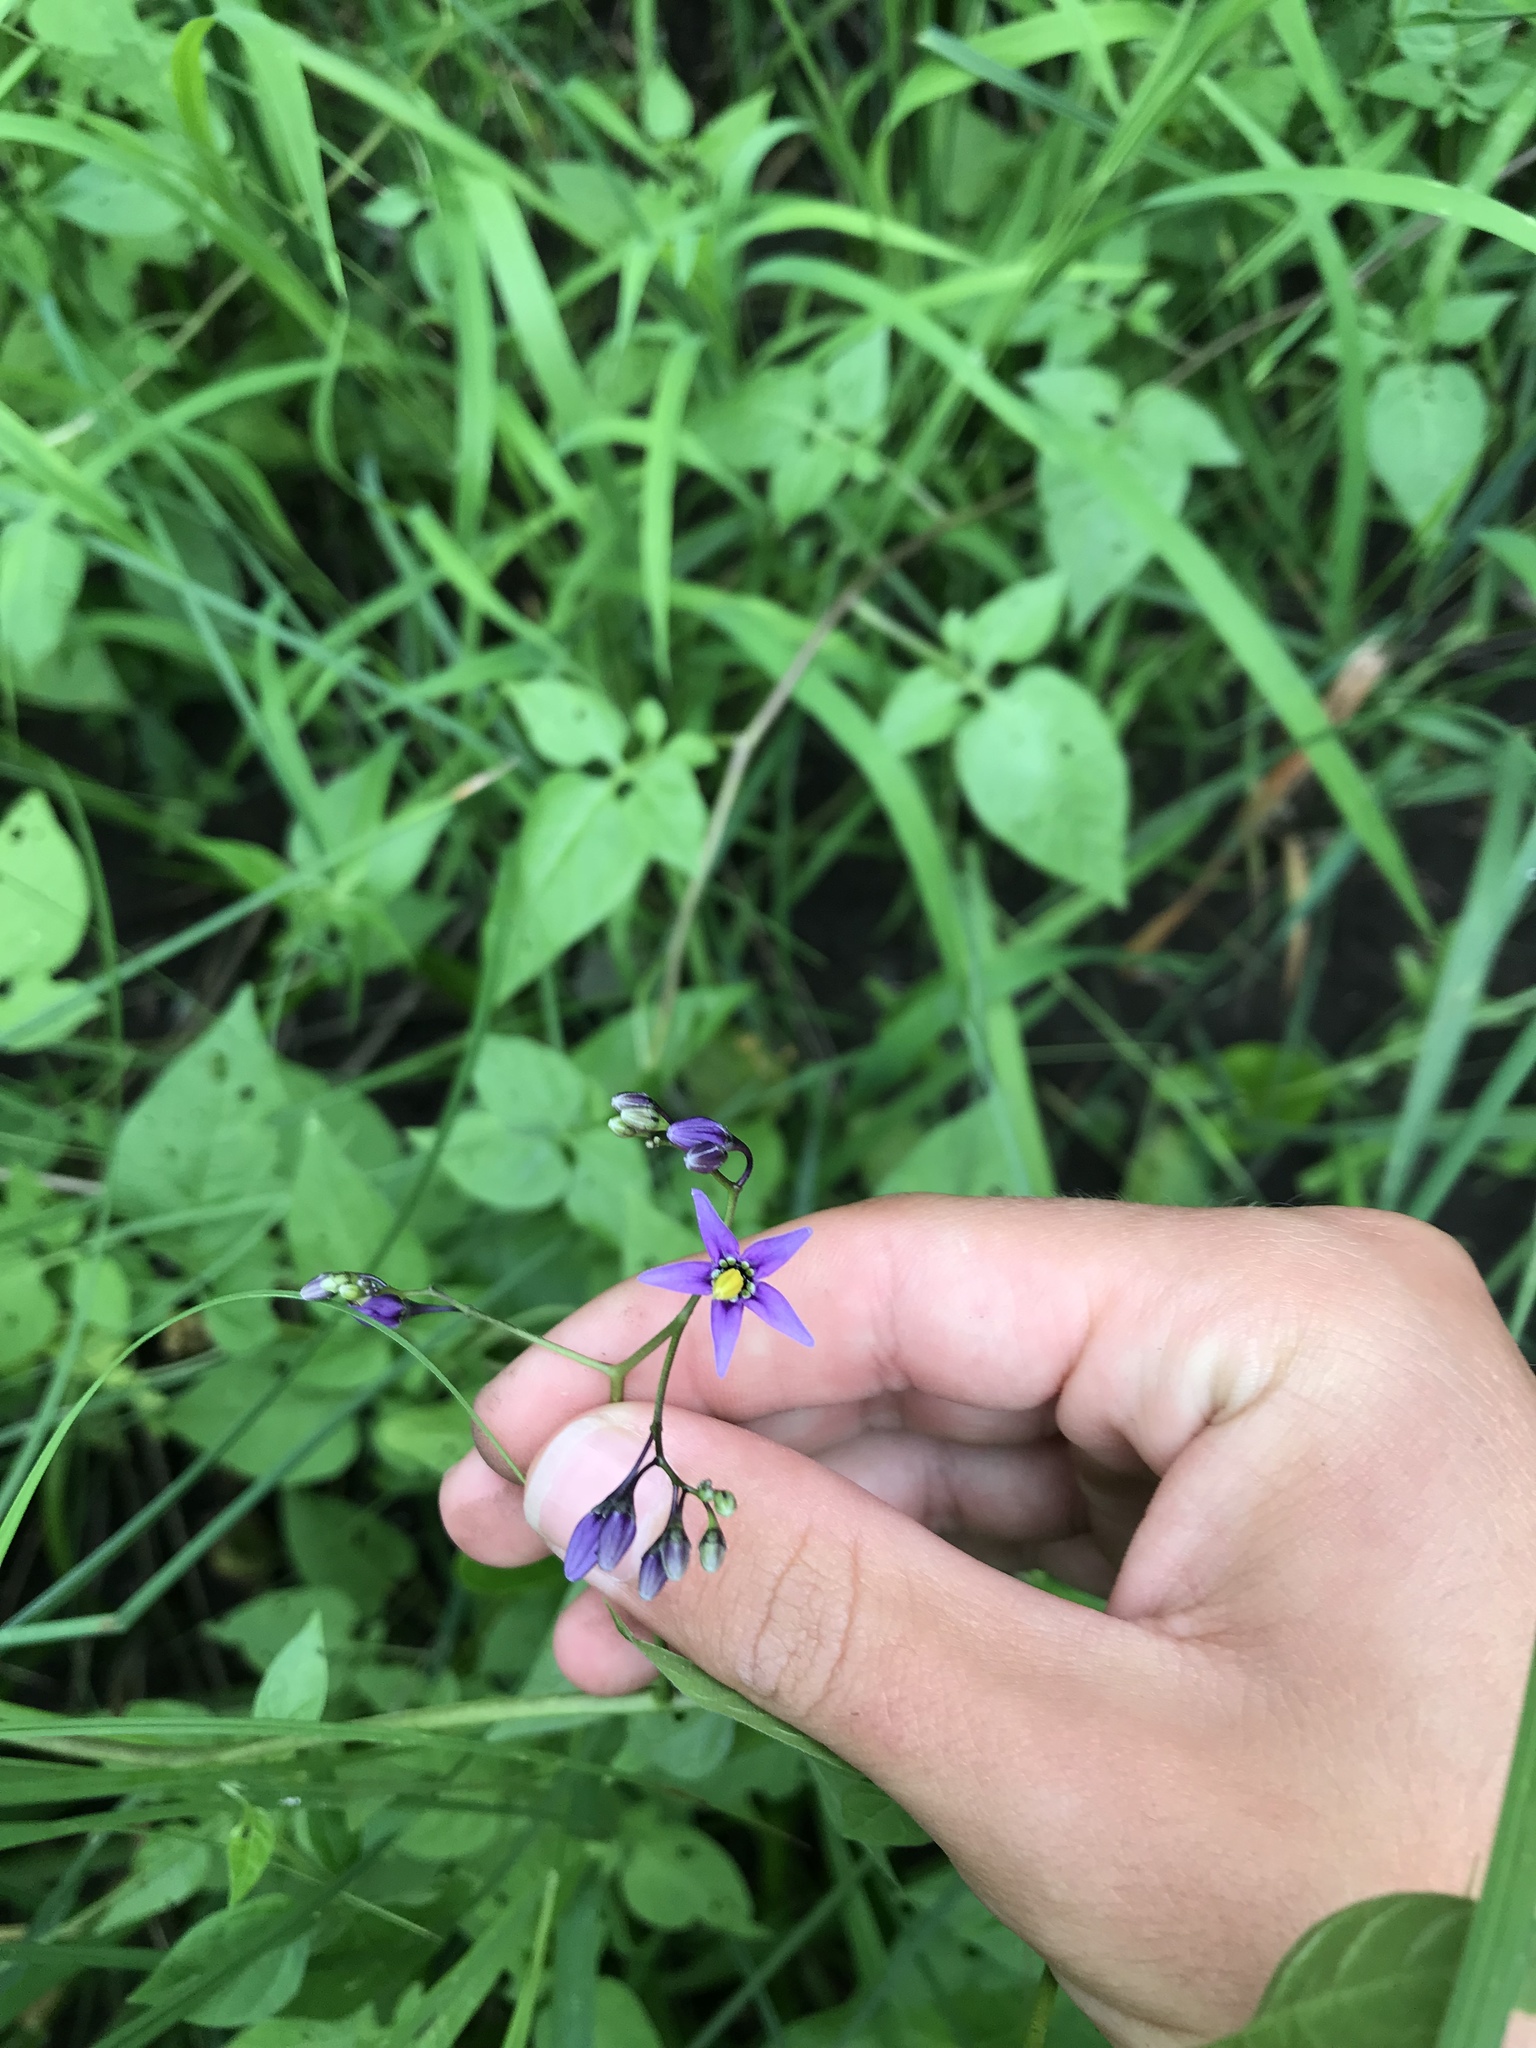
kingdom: Plantae
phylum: Tracheophyta
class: Magnoliopsida
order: Solanales
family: Solanaceae
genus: Solanum
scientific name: Solanum dulcamara
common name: Climbing nightshade
